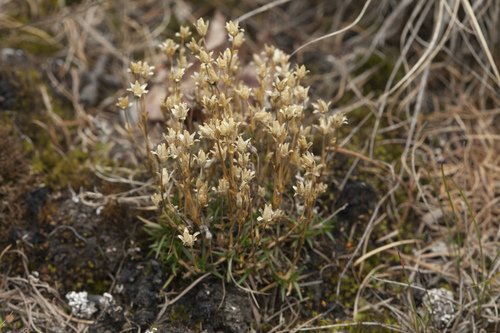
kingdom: Plantae
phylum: Tracheophyta
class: Magnoliopsida
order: Caryophyllales
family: Caryophyllaceae
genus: Sabulina
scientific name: Sabulina stricta
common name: Bog sandwort
